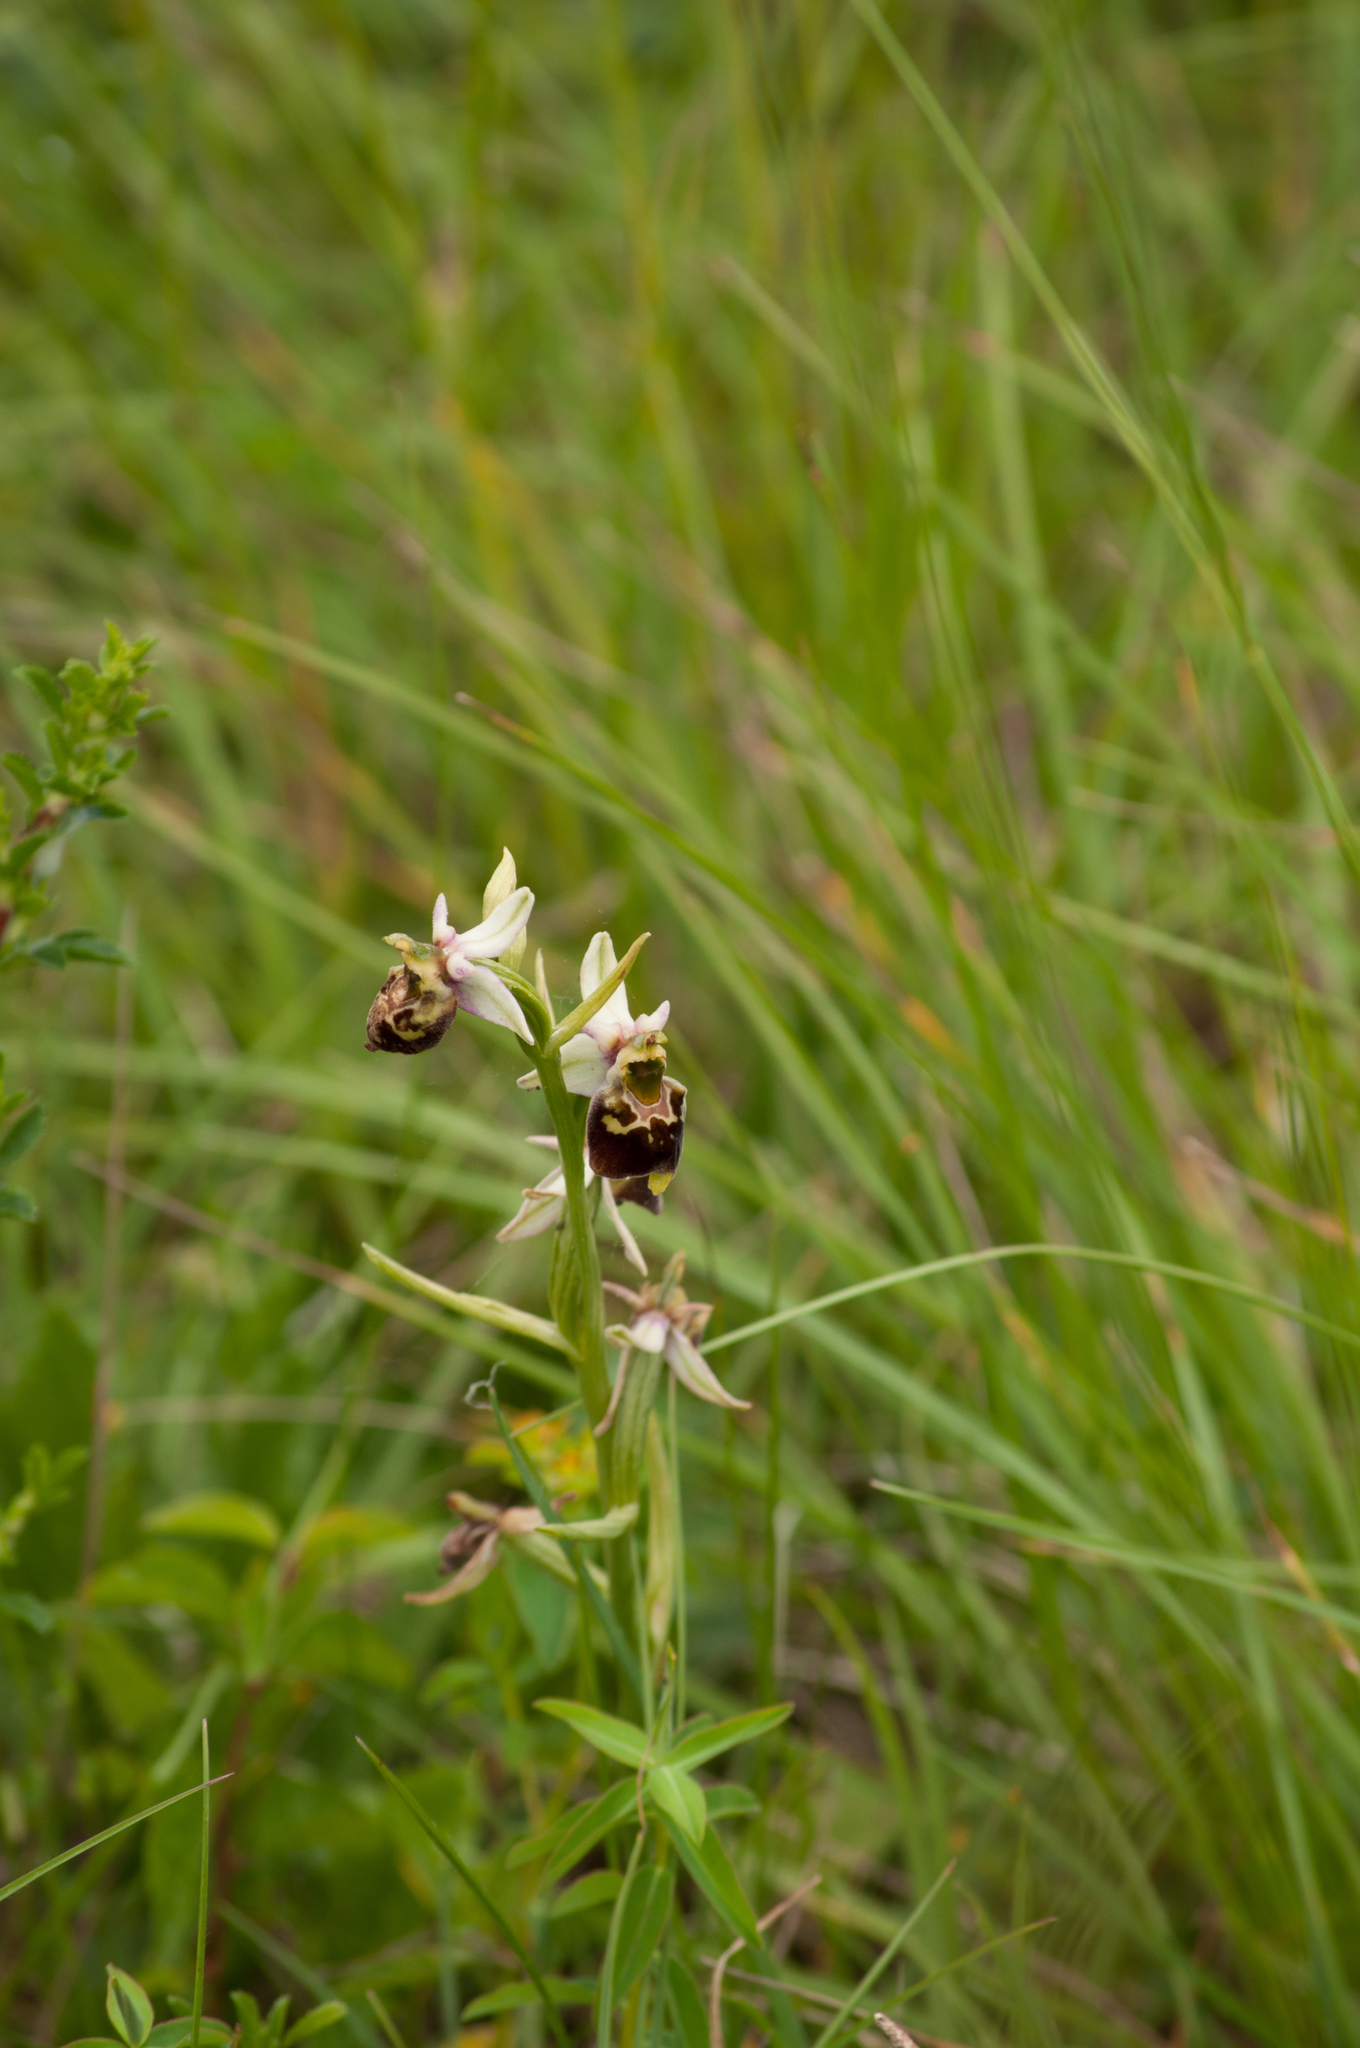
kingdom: Plantae
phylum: Tracheophyta
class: Liliopsida
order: Asparagales
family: Orchidaceae
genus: Ophrys
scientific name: Ophrys holosericea
